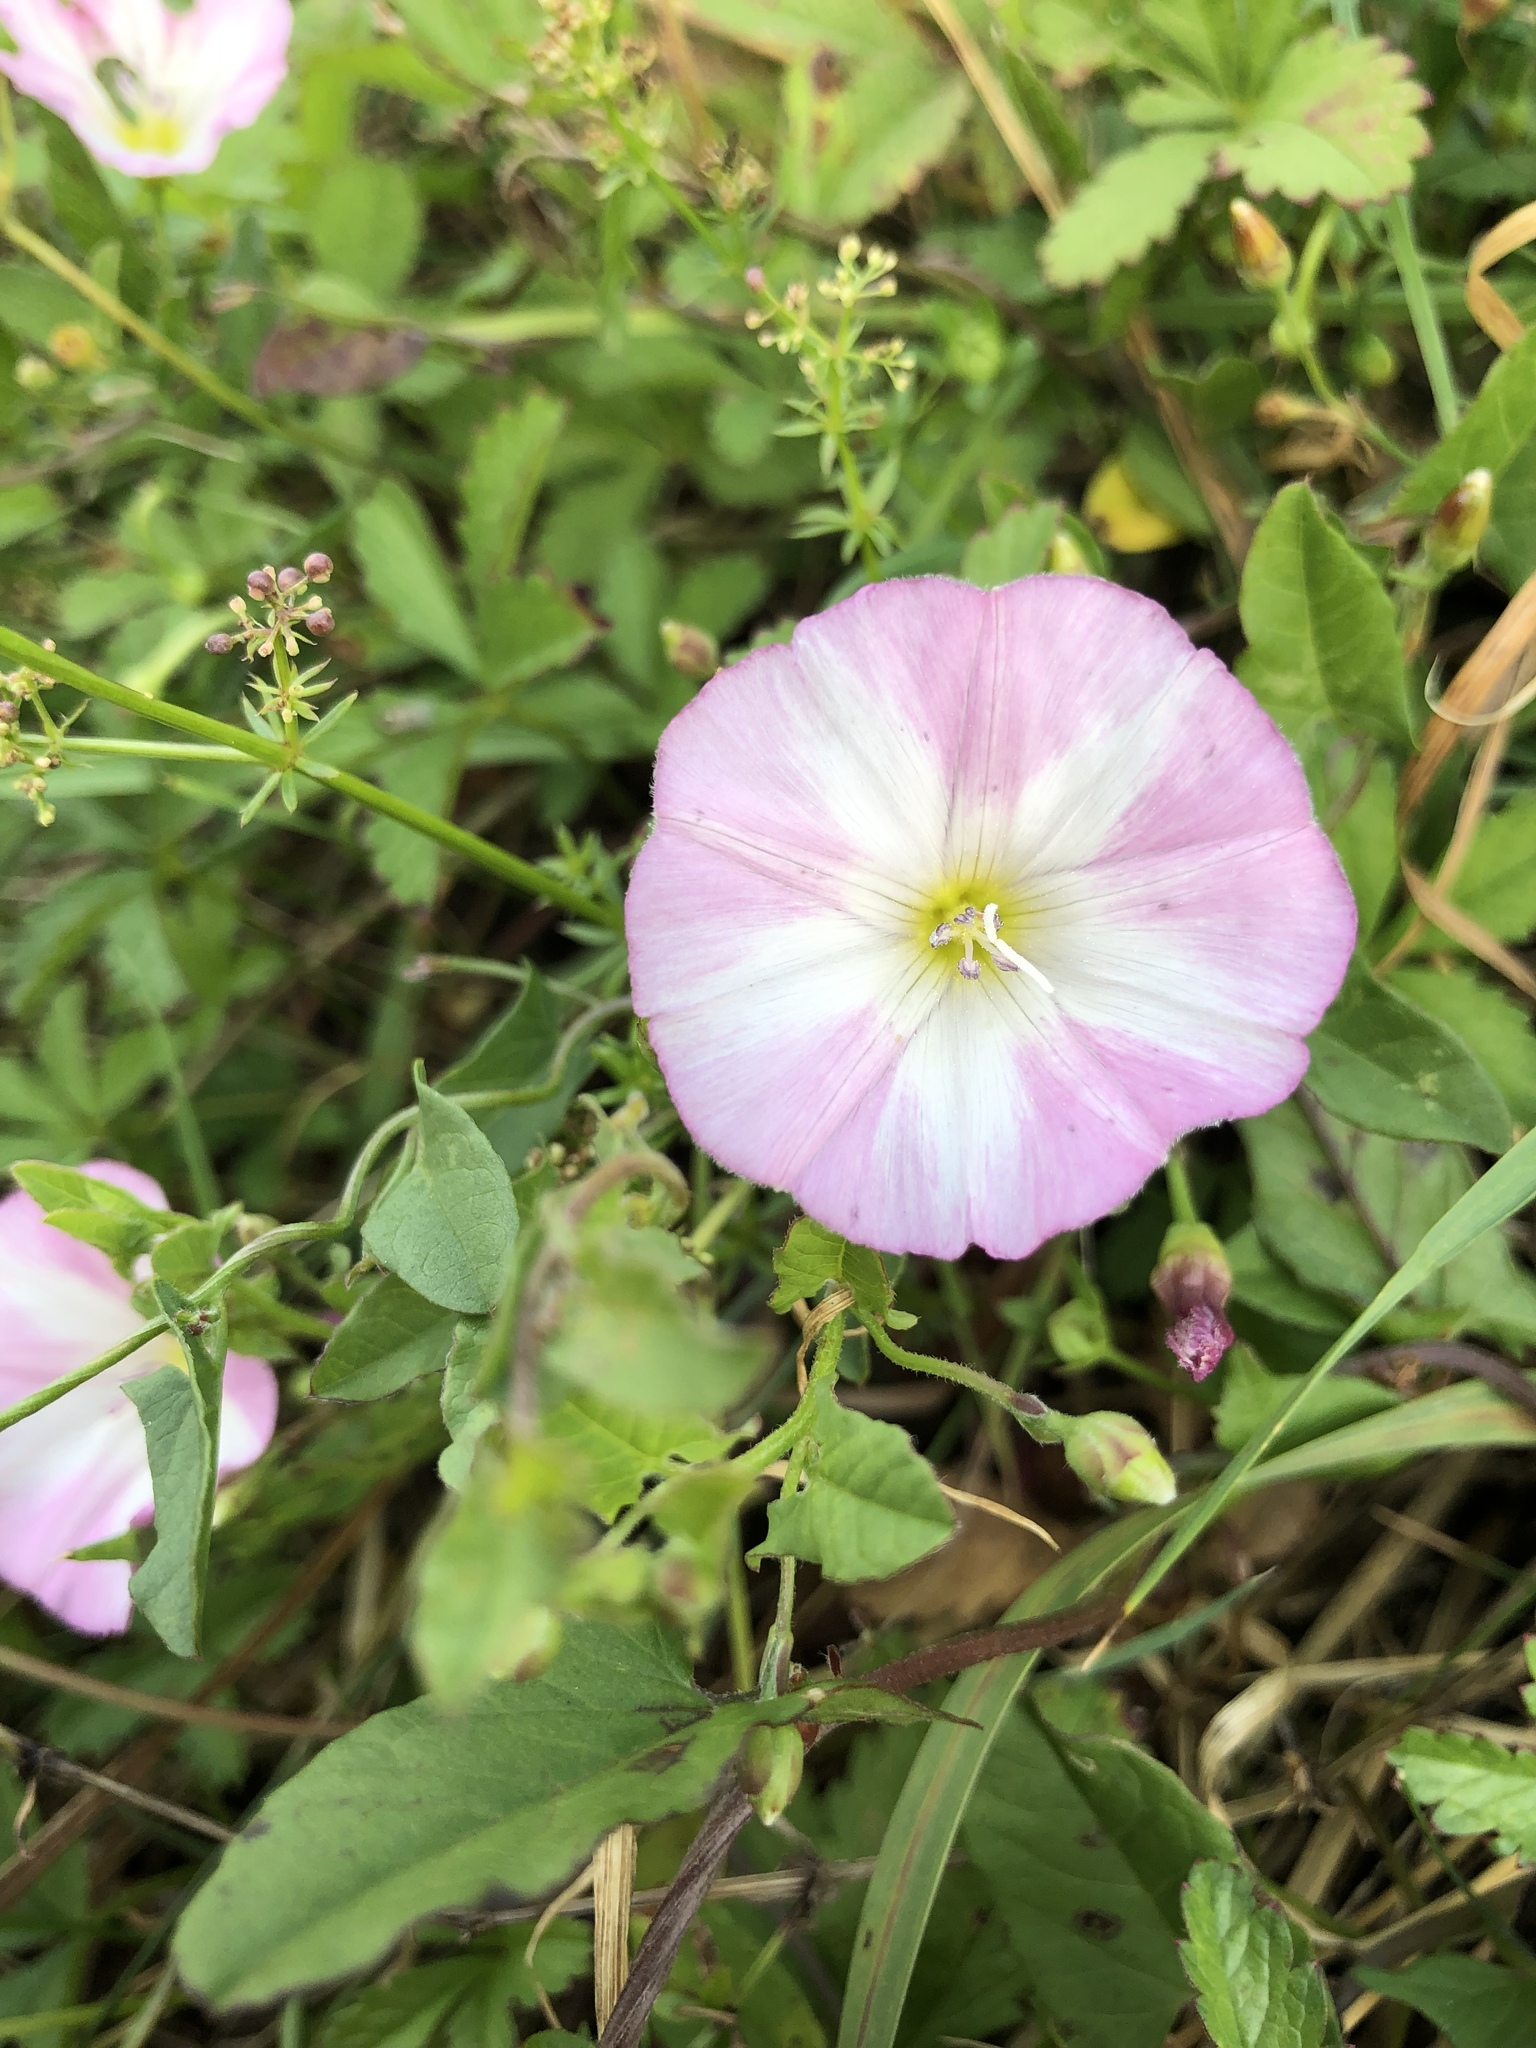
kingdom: Plantae
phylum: Tracheophyta
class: Magnoliopsida
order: Solanales
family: Convolvulaceae
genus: Convolvulus
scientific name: Convolvulus arvensis
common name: Field bindweed
